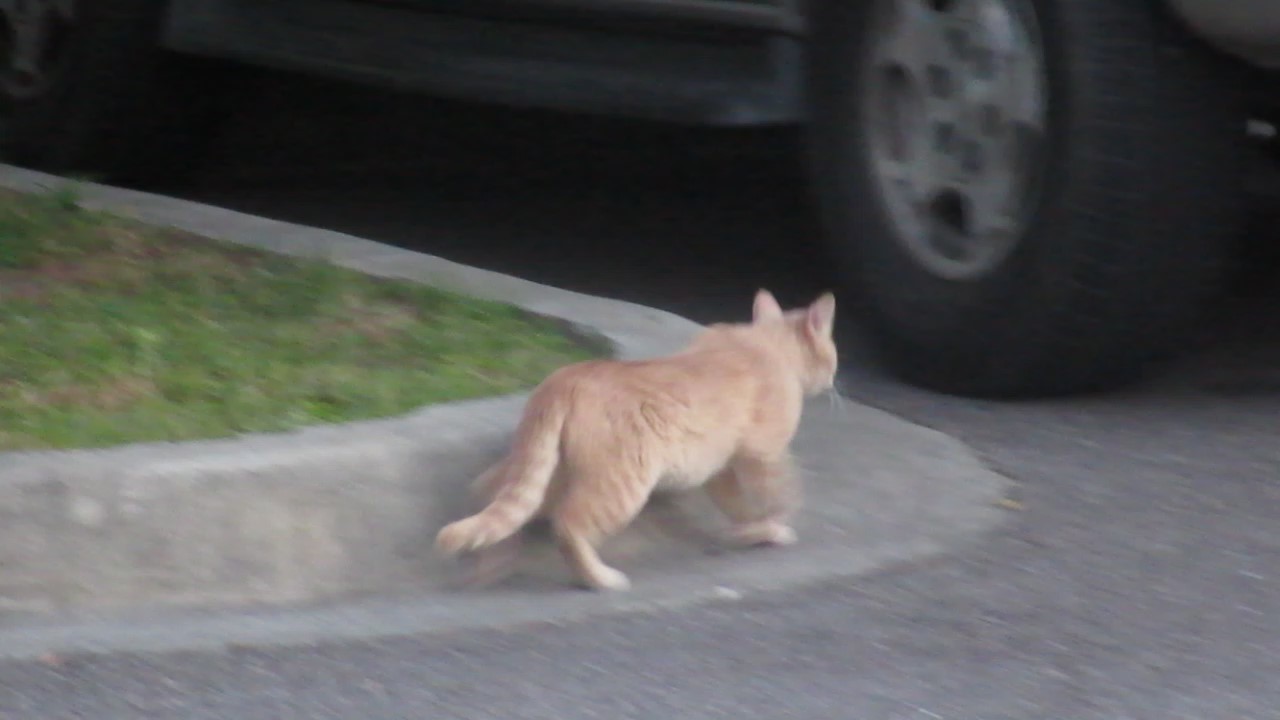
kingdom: Animalia
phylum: Chordata
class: Mammalia
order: Carnivora
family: Felidae
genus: Felis
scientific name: Felis catus
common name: Domestic cat
